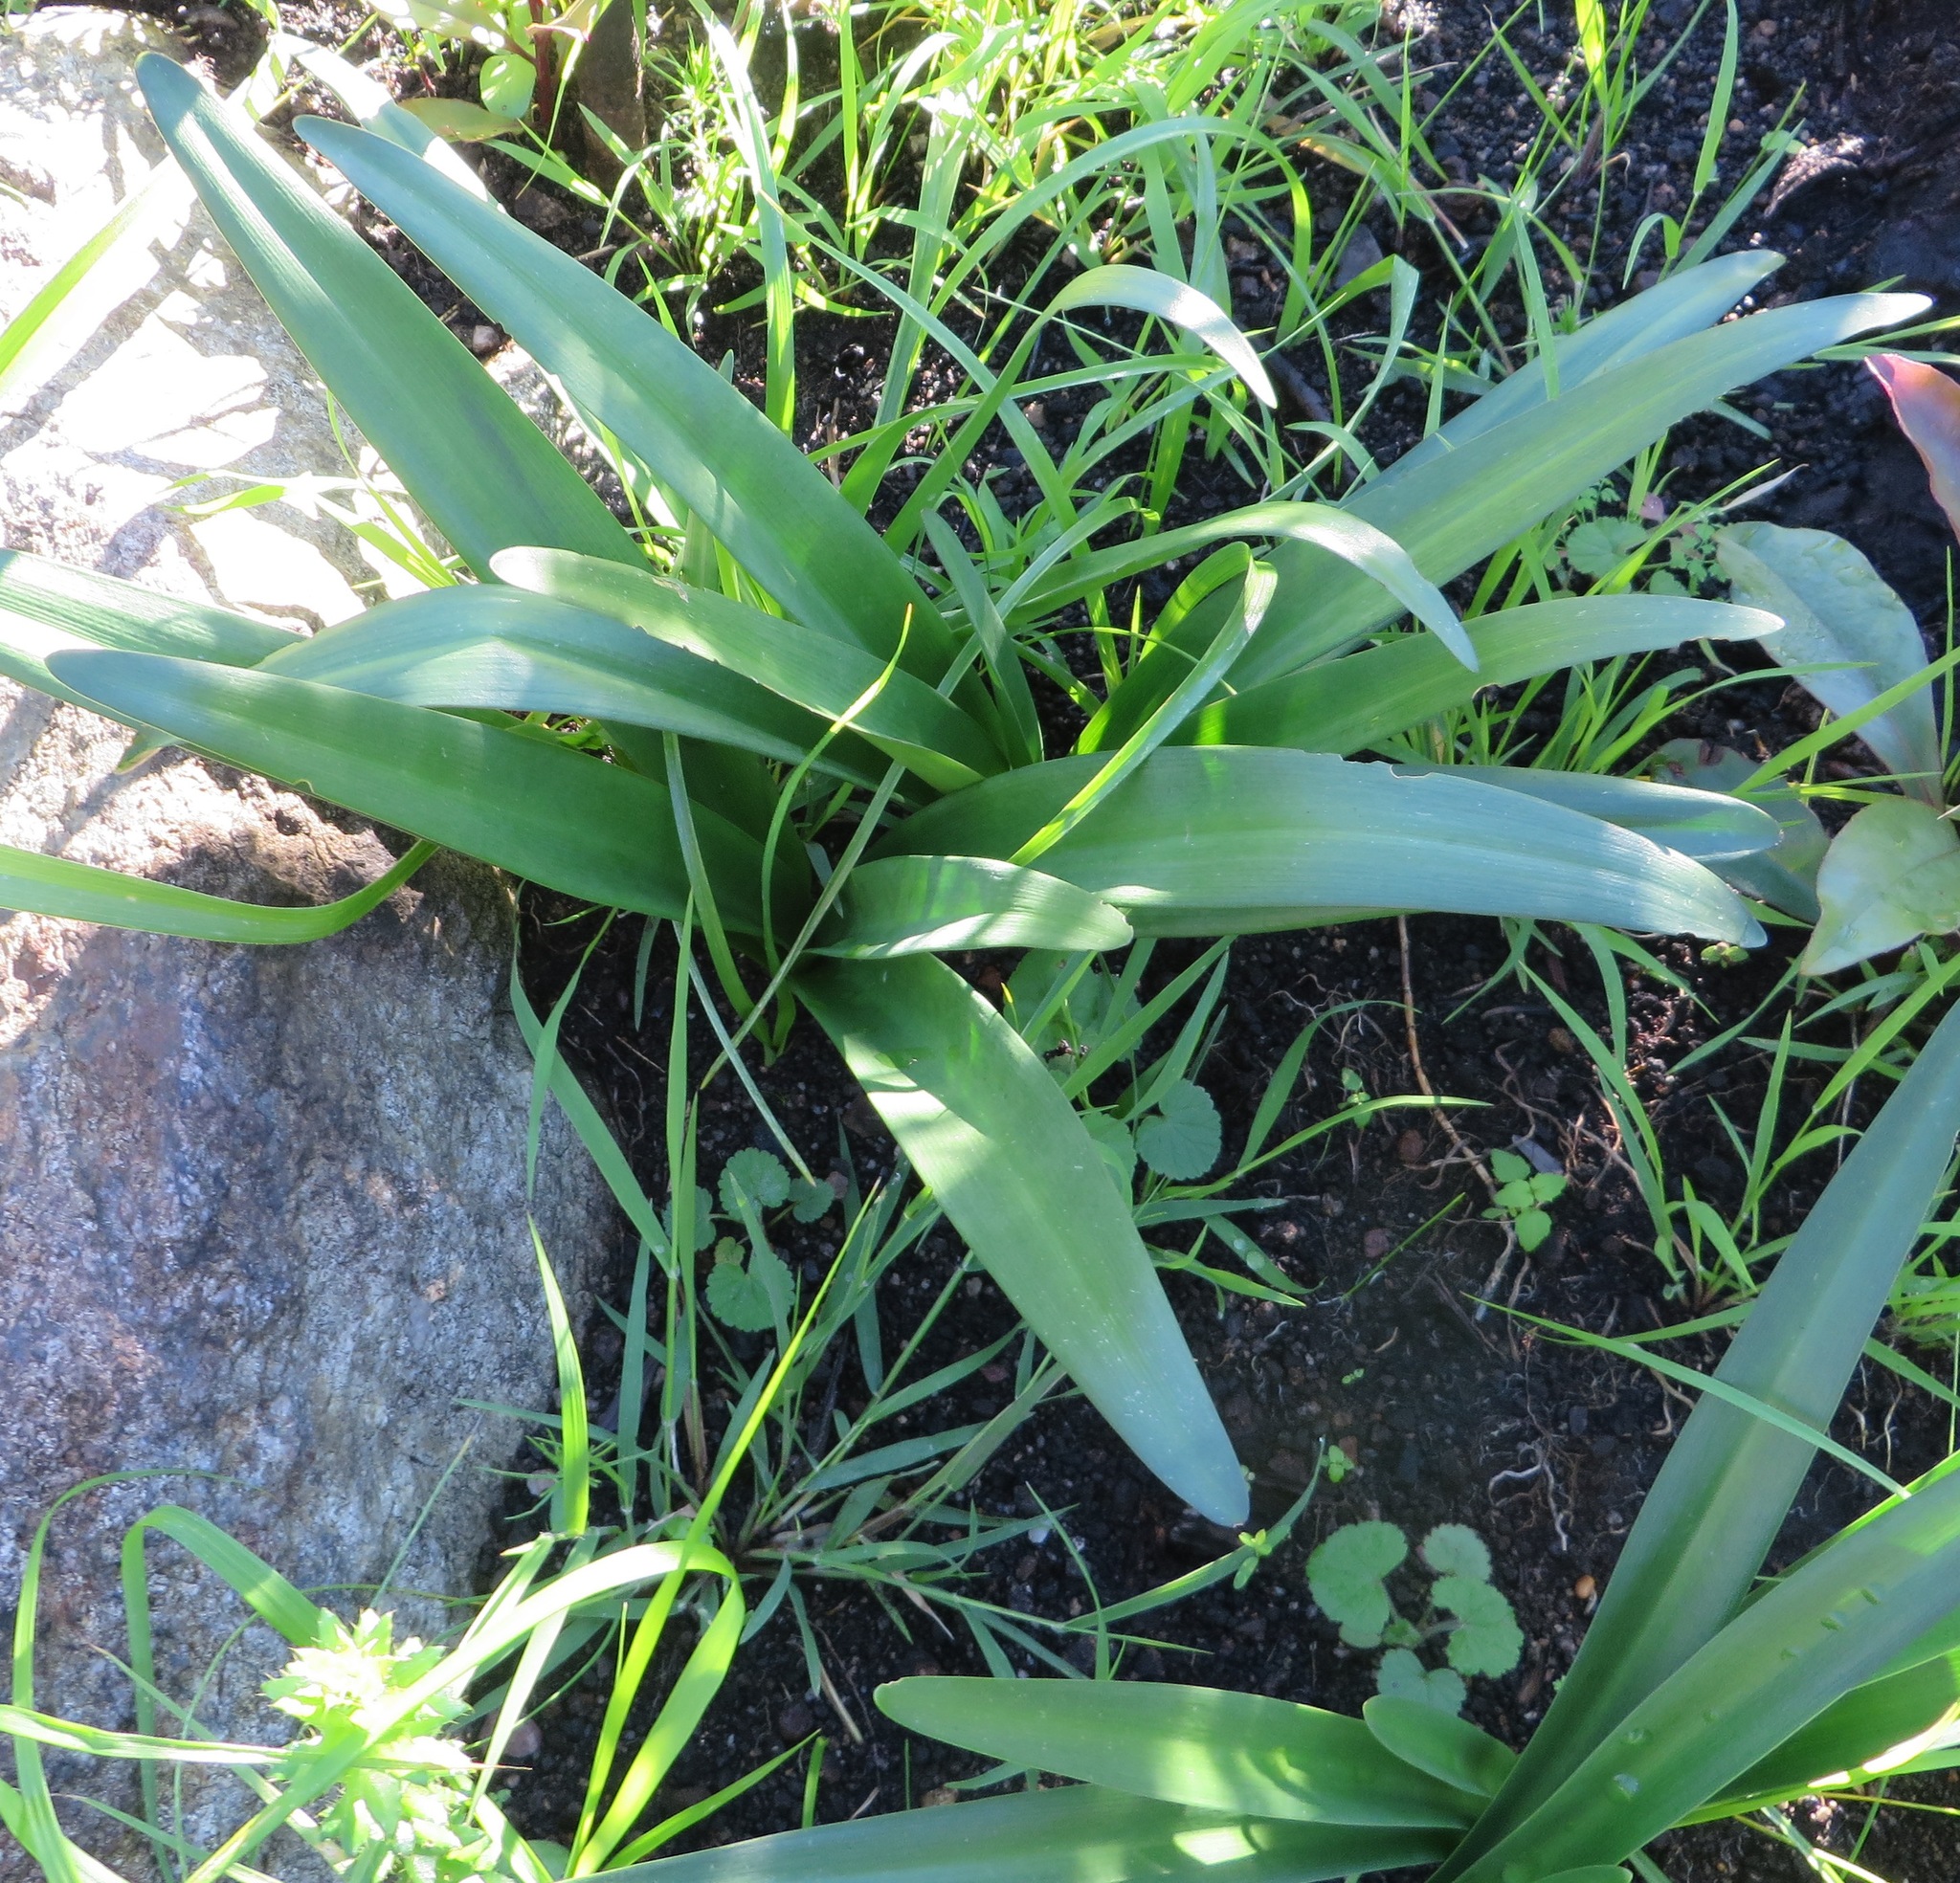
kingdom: Plantae
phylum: Tracheophyta
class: Liliopsida
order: Asparagales
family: Amaryllidaceae
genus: Amaryllis
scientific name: Amaryllis belladonna
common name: Jersey lily
